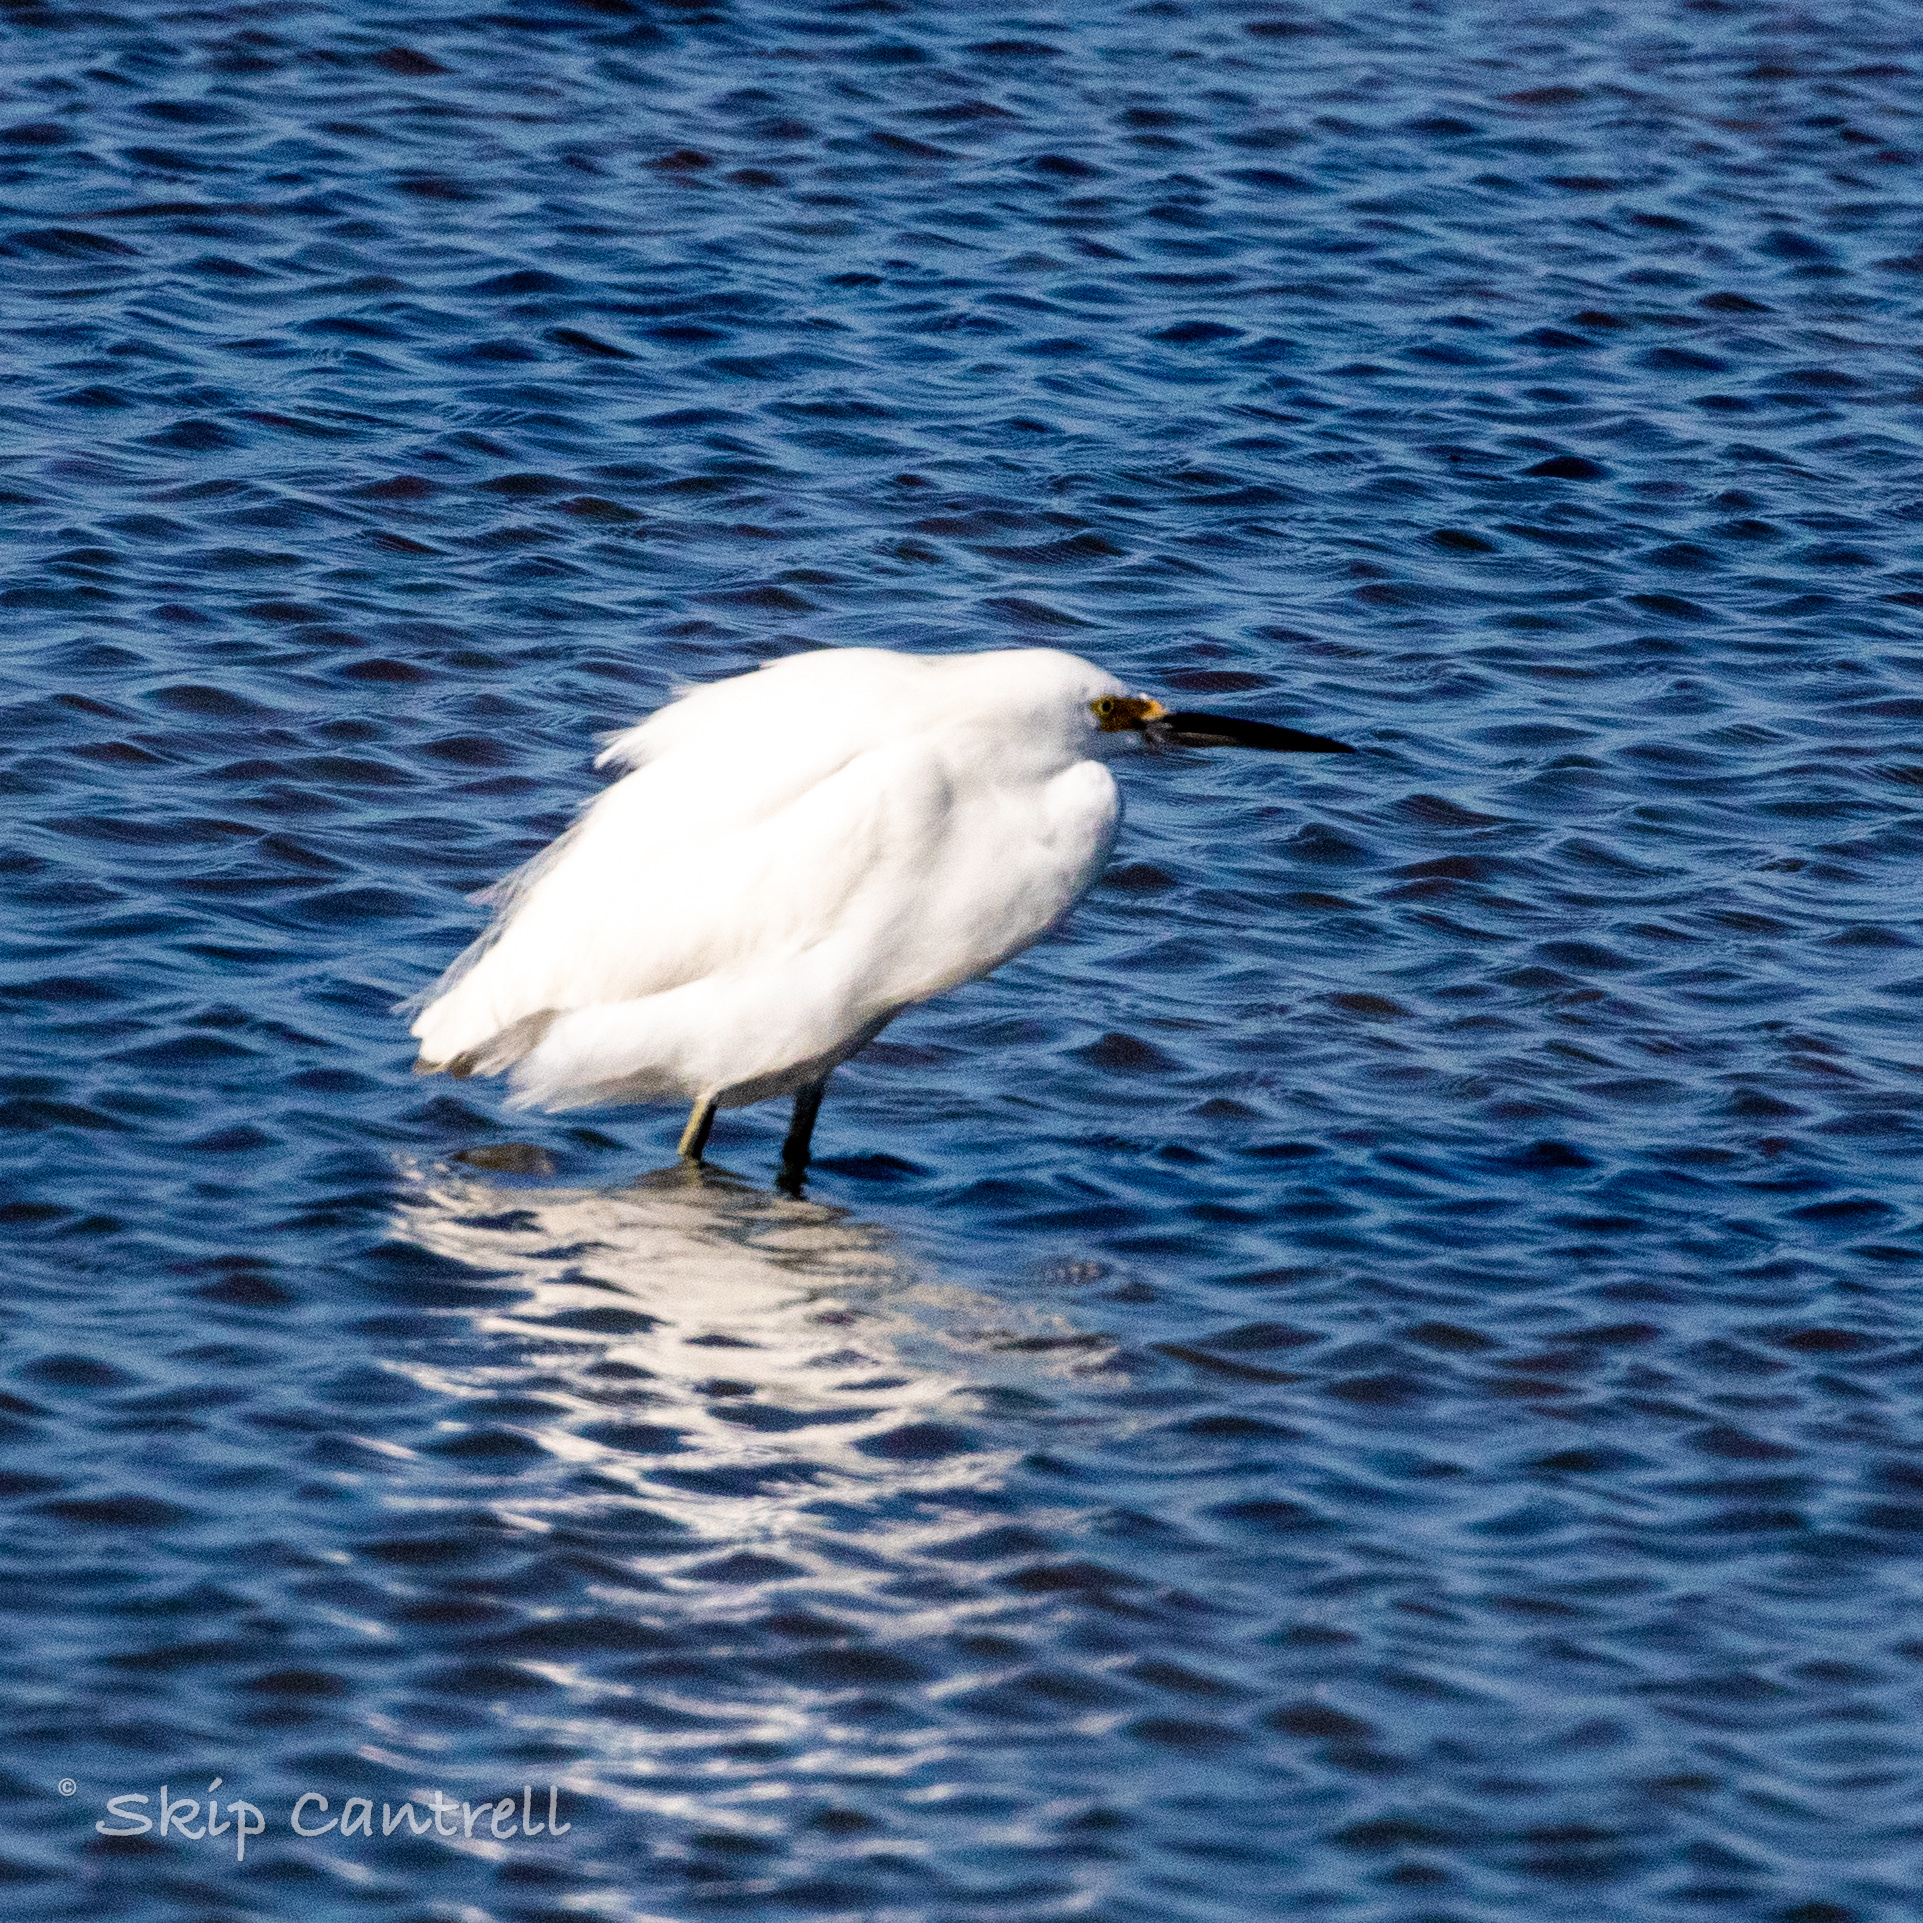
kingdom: Animalia
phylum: Chordata
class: Aves
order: Pelecaniformes
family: Ardeidae
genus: Egretta
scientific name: Egretta thula
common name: Snowy egret
